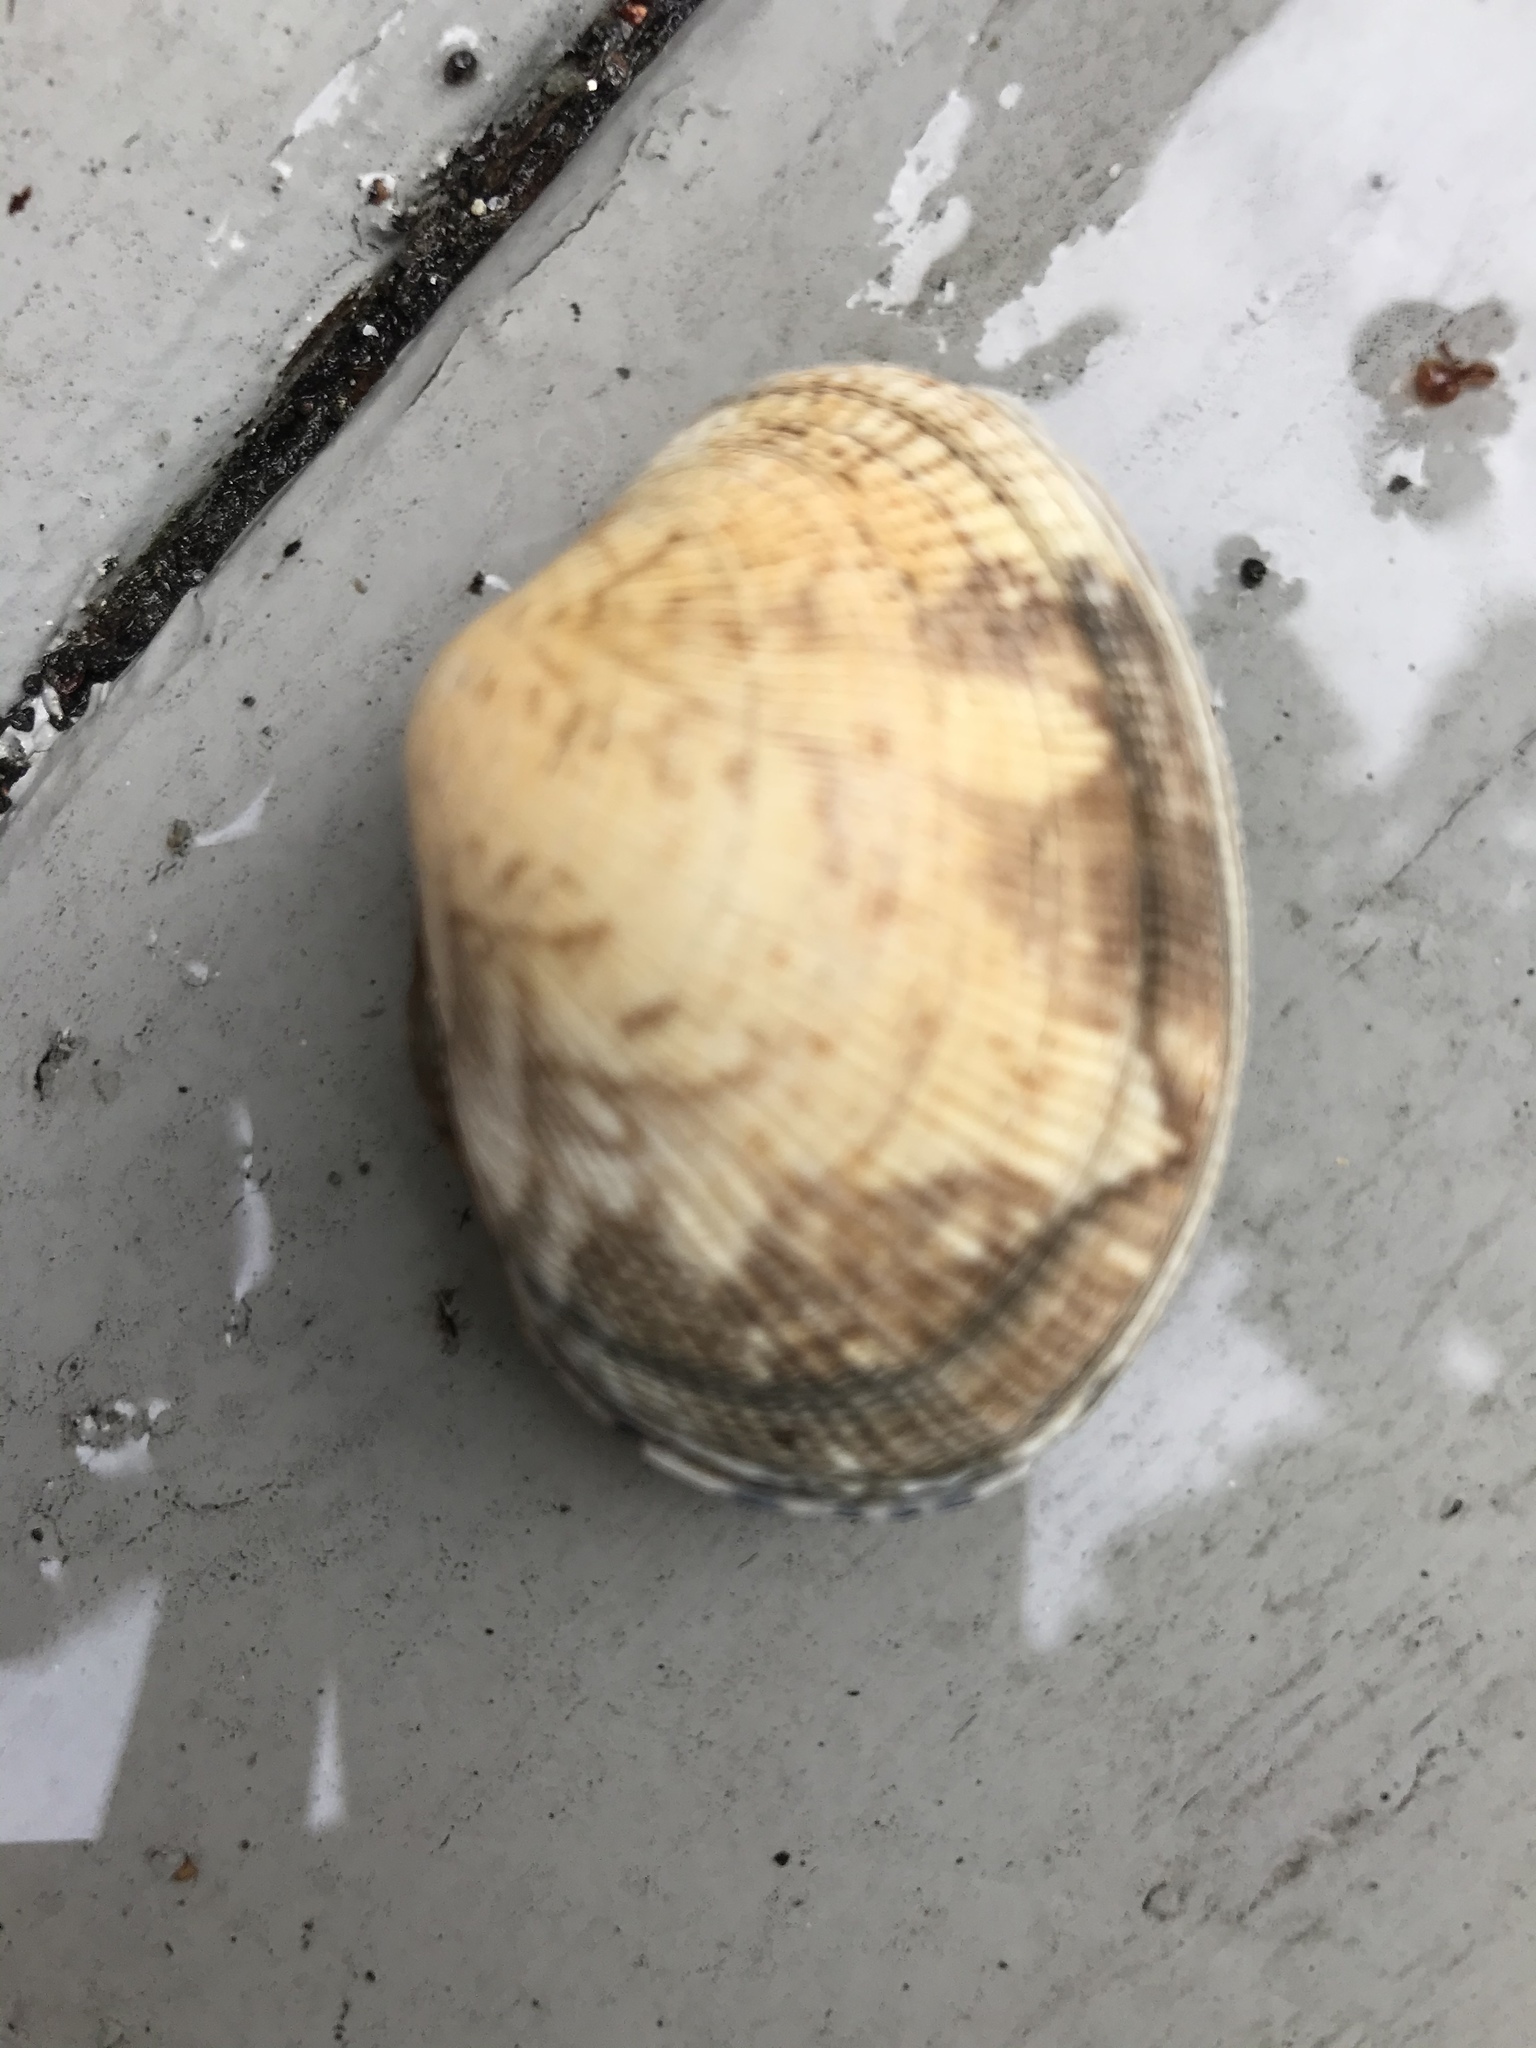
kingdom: Animalia
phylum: Mollusca
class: Bivalvia
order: Venerida
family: Veneridae
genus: Ruditapes
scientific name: Ruditapes philippinarum
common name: Manila clam
